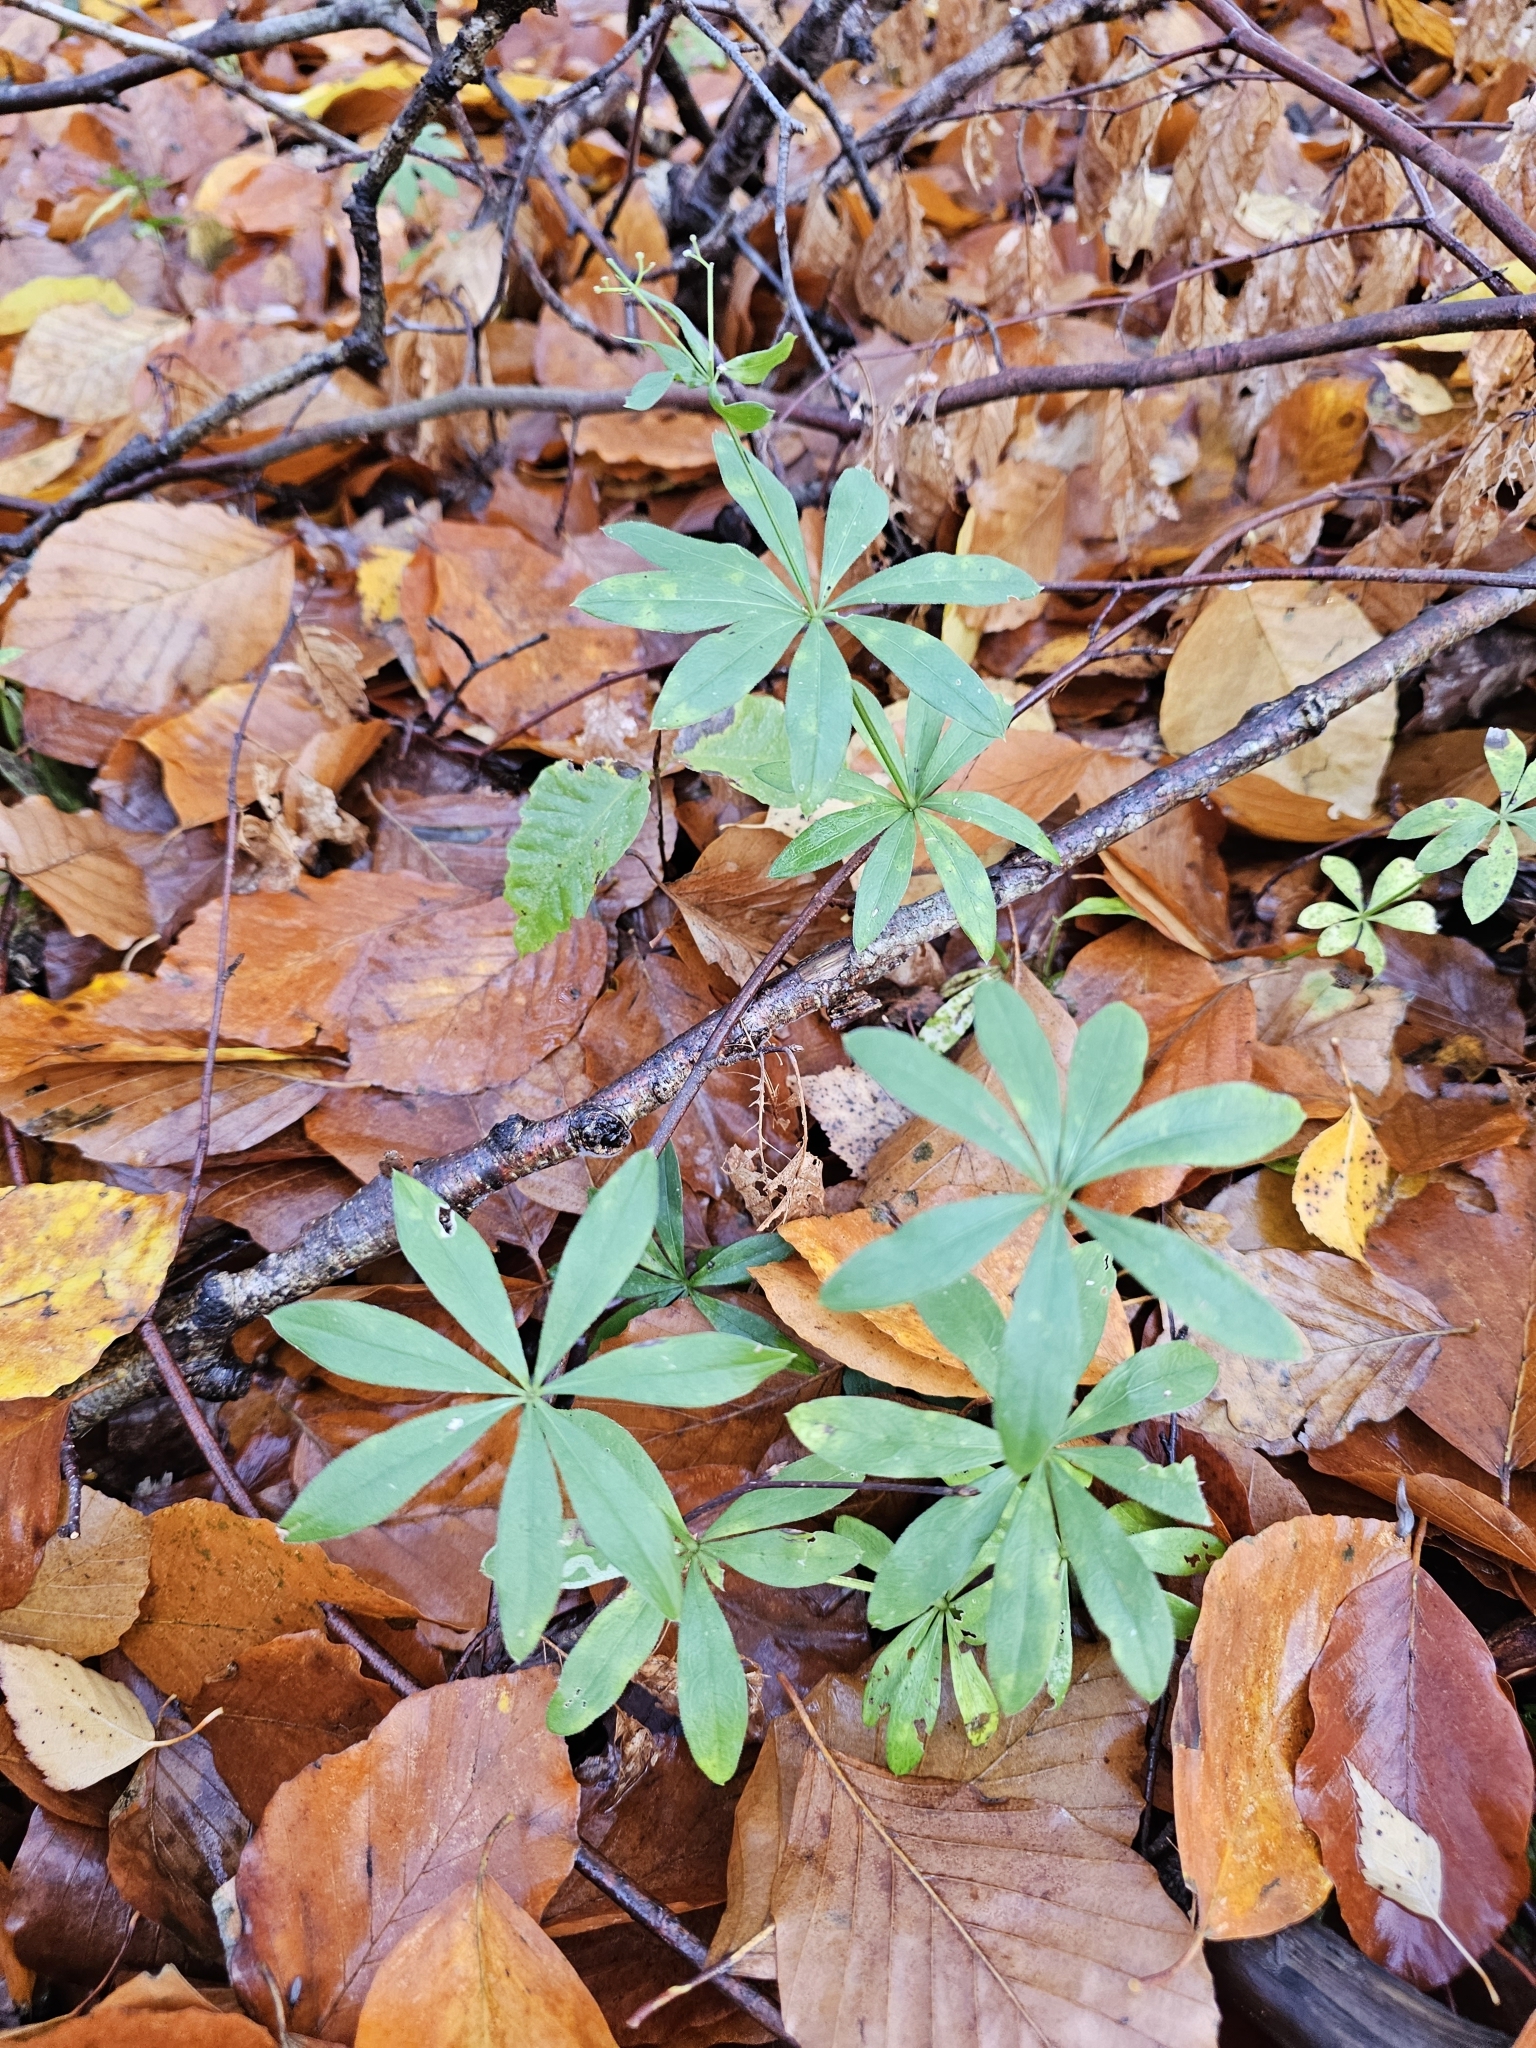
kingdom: Plantae
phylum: Tracheophyta
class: Magnoliopsida
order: Gentianales
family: Rubiaceae
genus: Galium
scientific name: Galium odoratum
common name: Sweet woodruff
